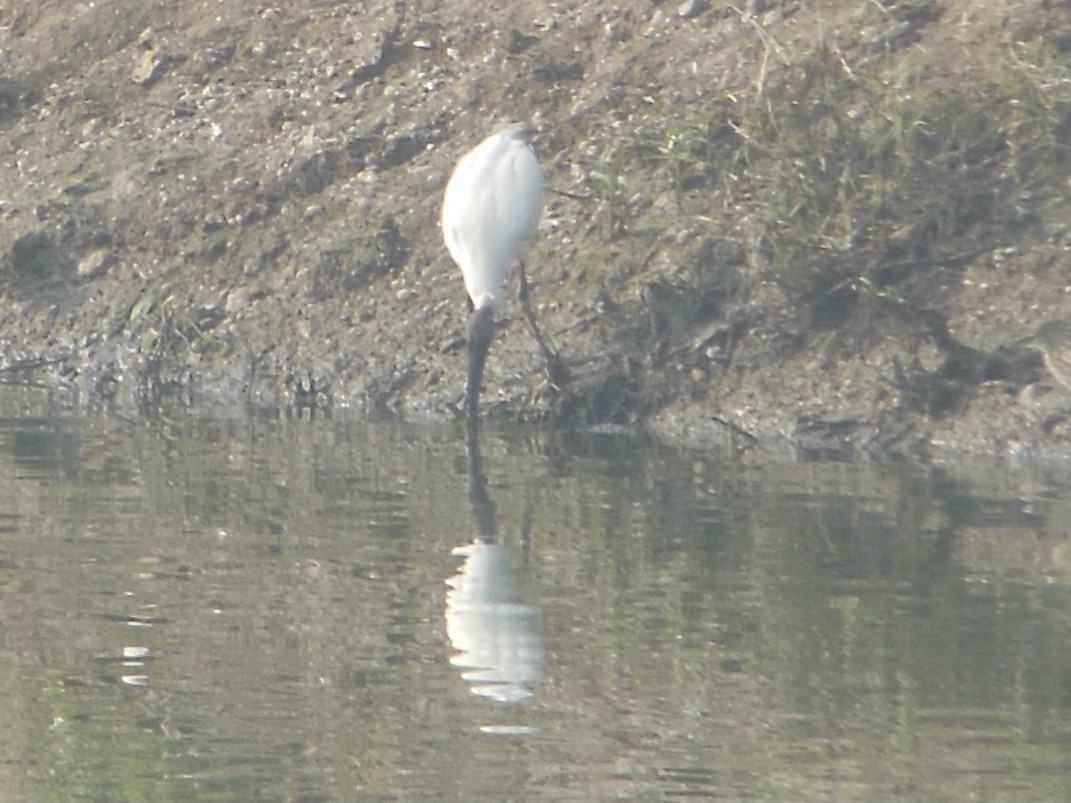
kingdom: Animalia
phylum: Chordata
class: Aves
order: Pelecaniformes
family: Threskiornithidae
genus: Threskiornis
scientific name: Threskiornis melanocephalus
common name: Black-headed ibis
